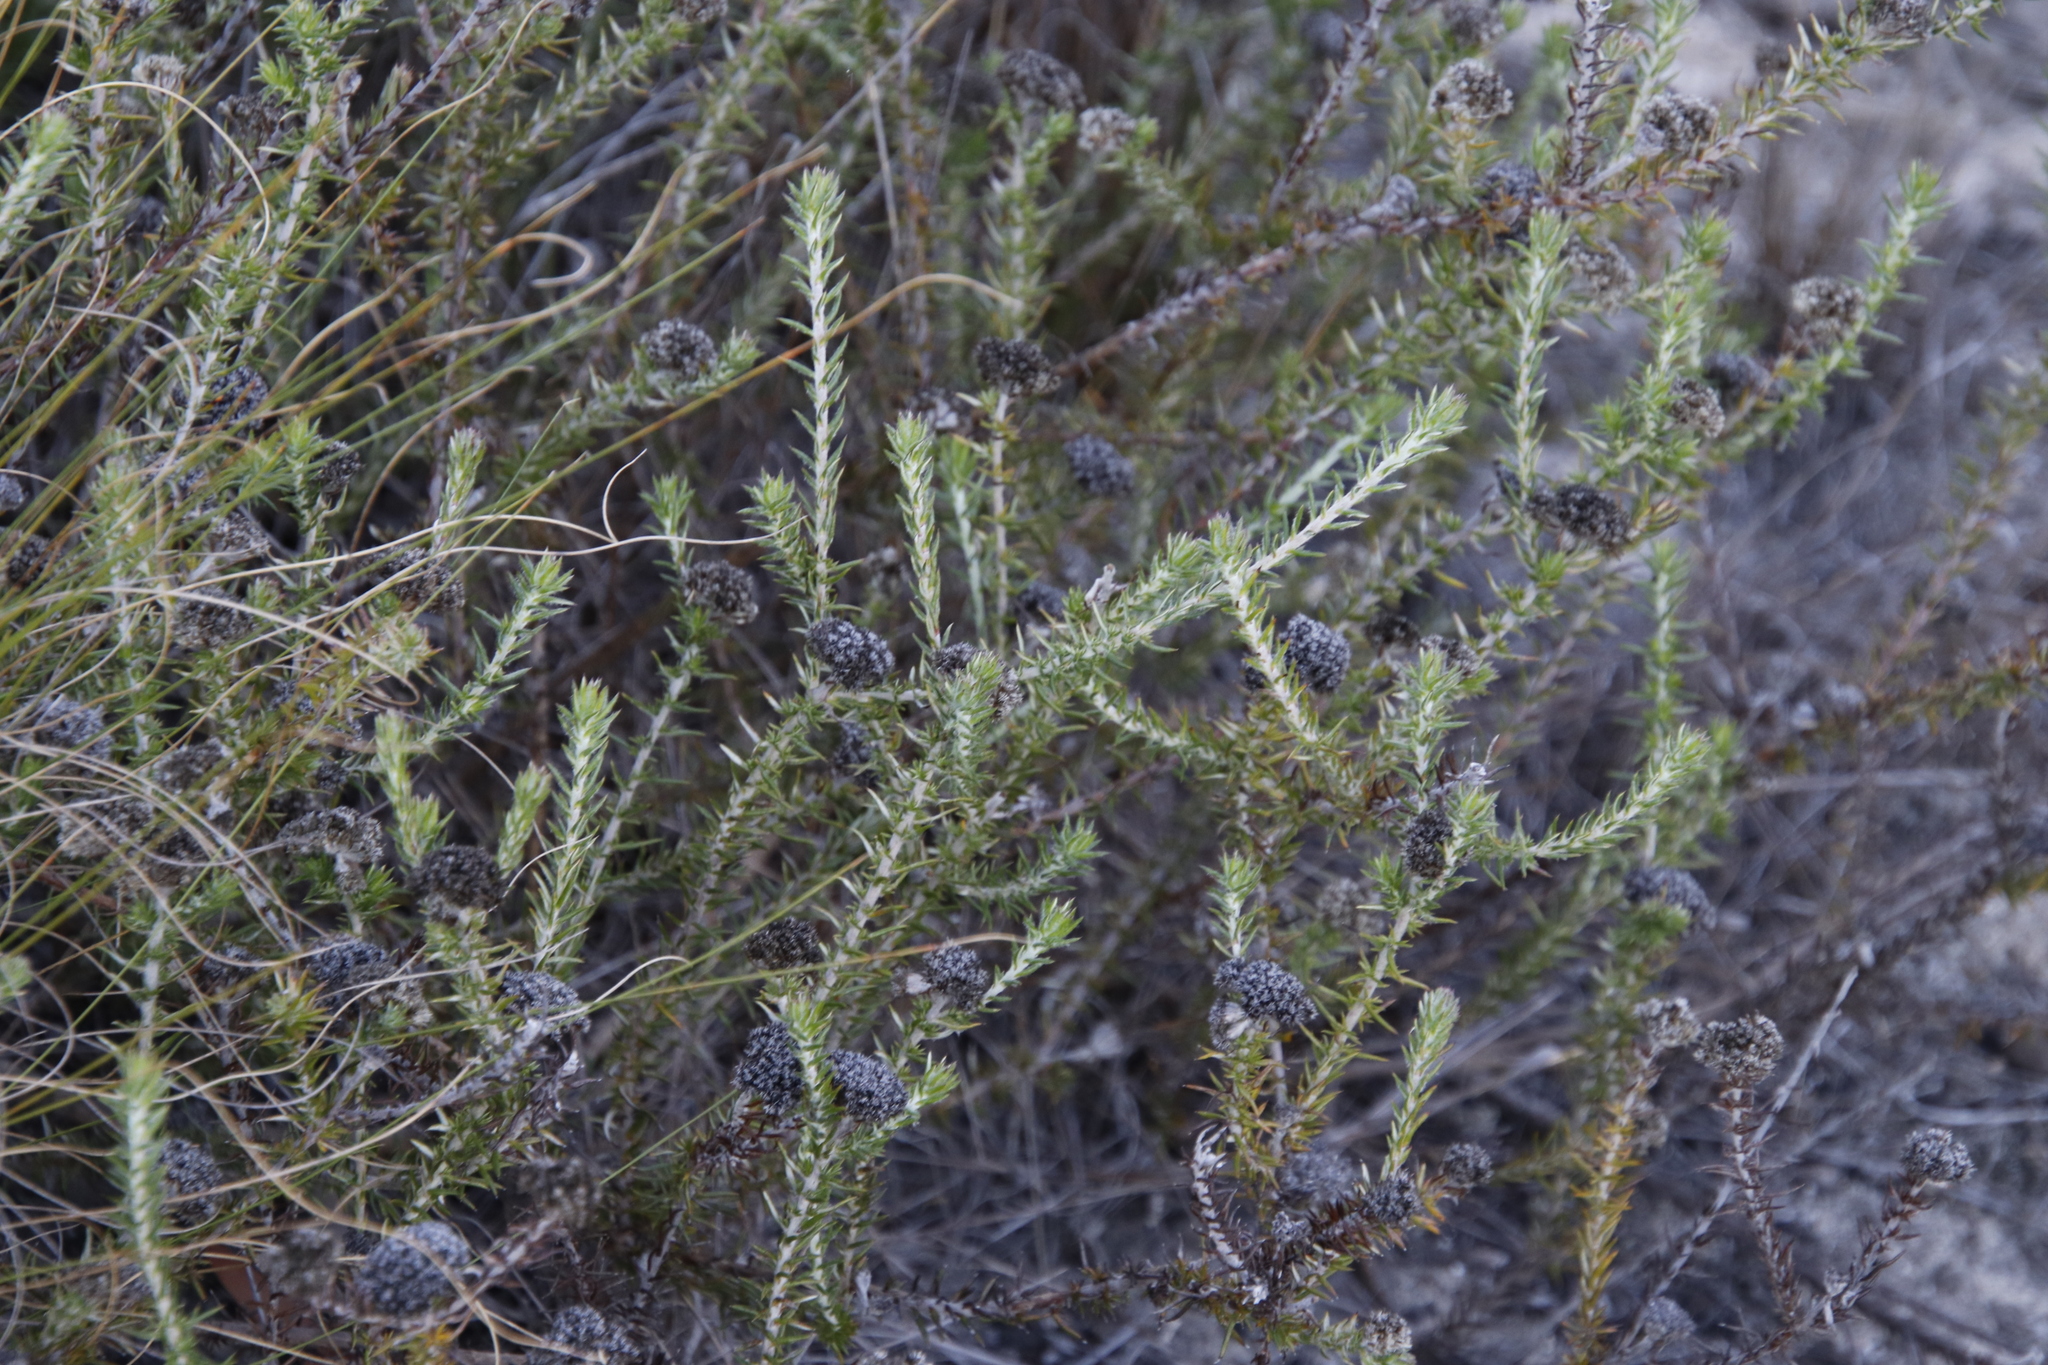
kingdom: Plantae
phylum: Tracheophyta
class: Magnoliopsida
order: Asterales
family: Asteraceae
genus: Metalasia
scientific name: Metalasia pulchella
